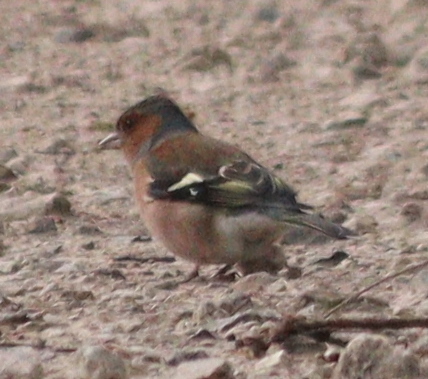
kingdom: Animalia
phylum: Chordata
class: Aves
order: Passeriformes
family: Fringillidae
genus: Fringilla
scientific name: Fringilla coelebs
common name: Common chaffinch
